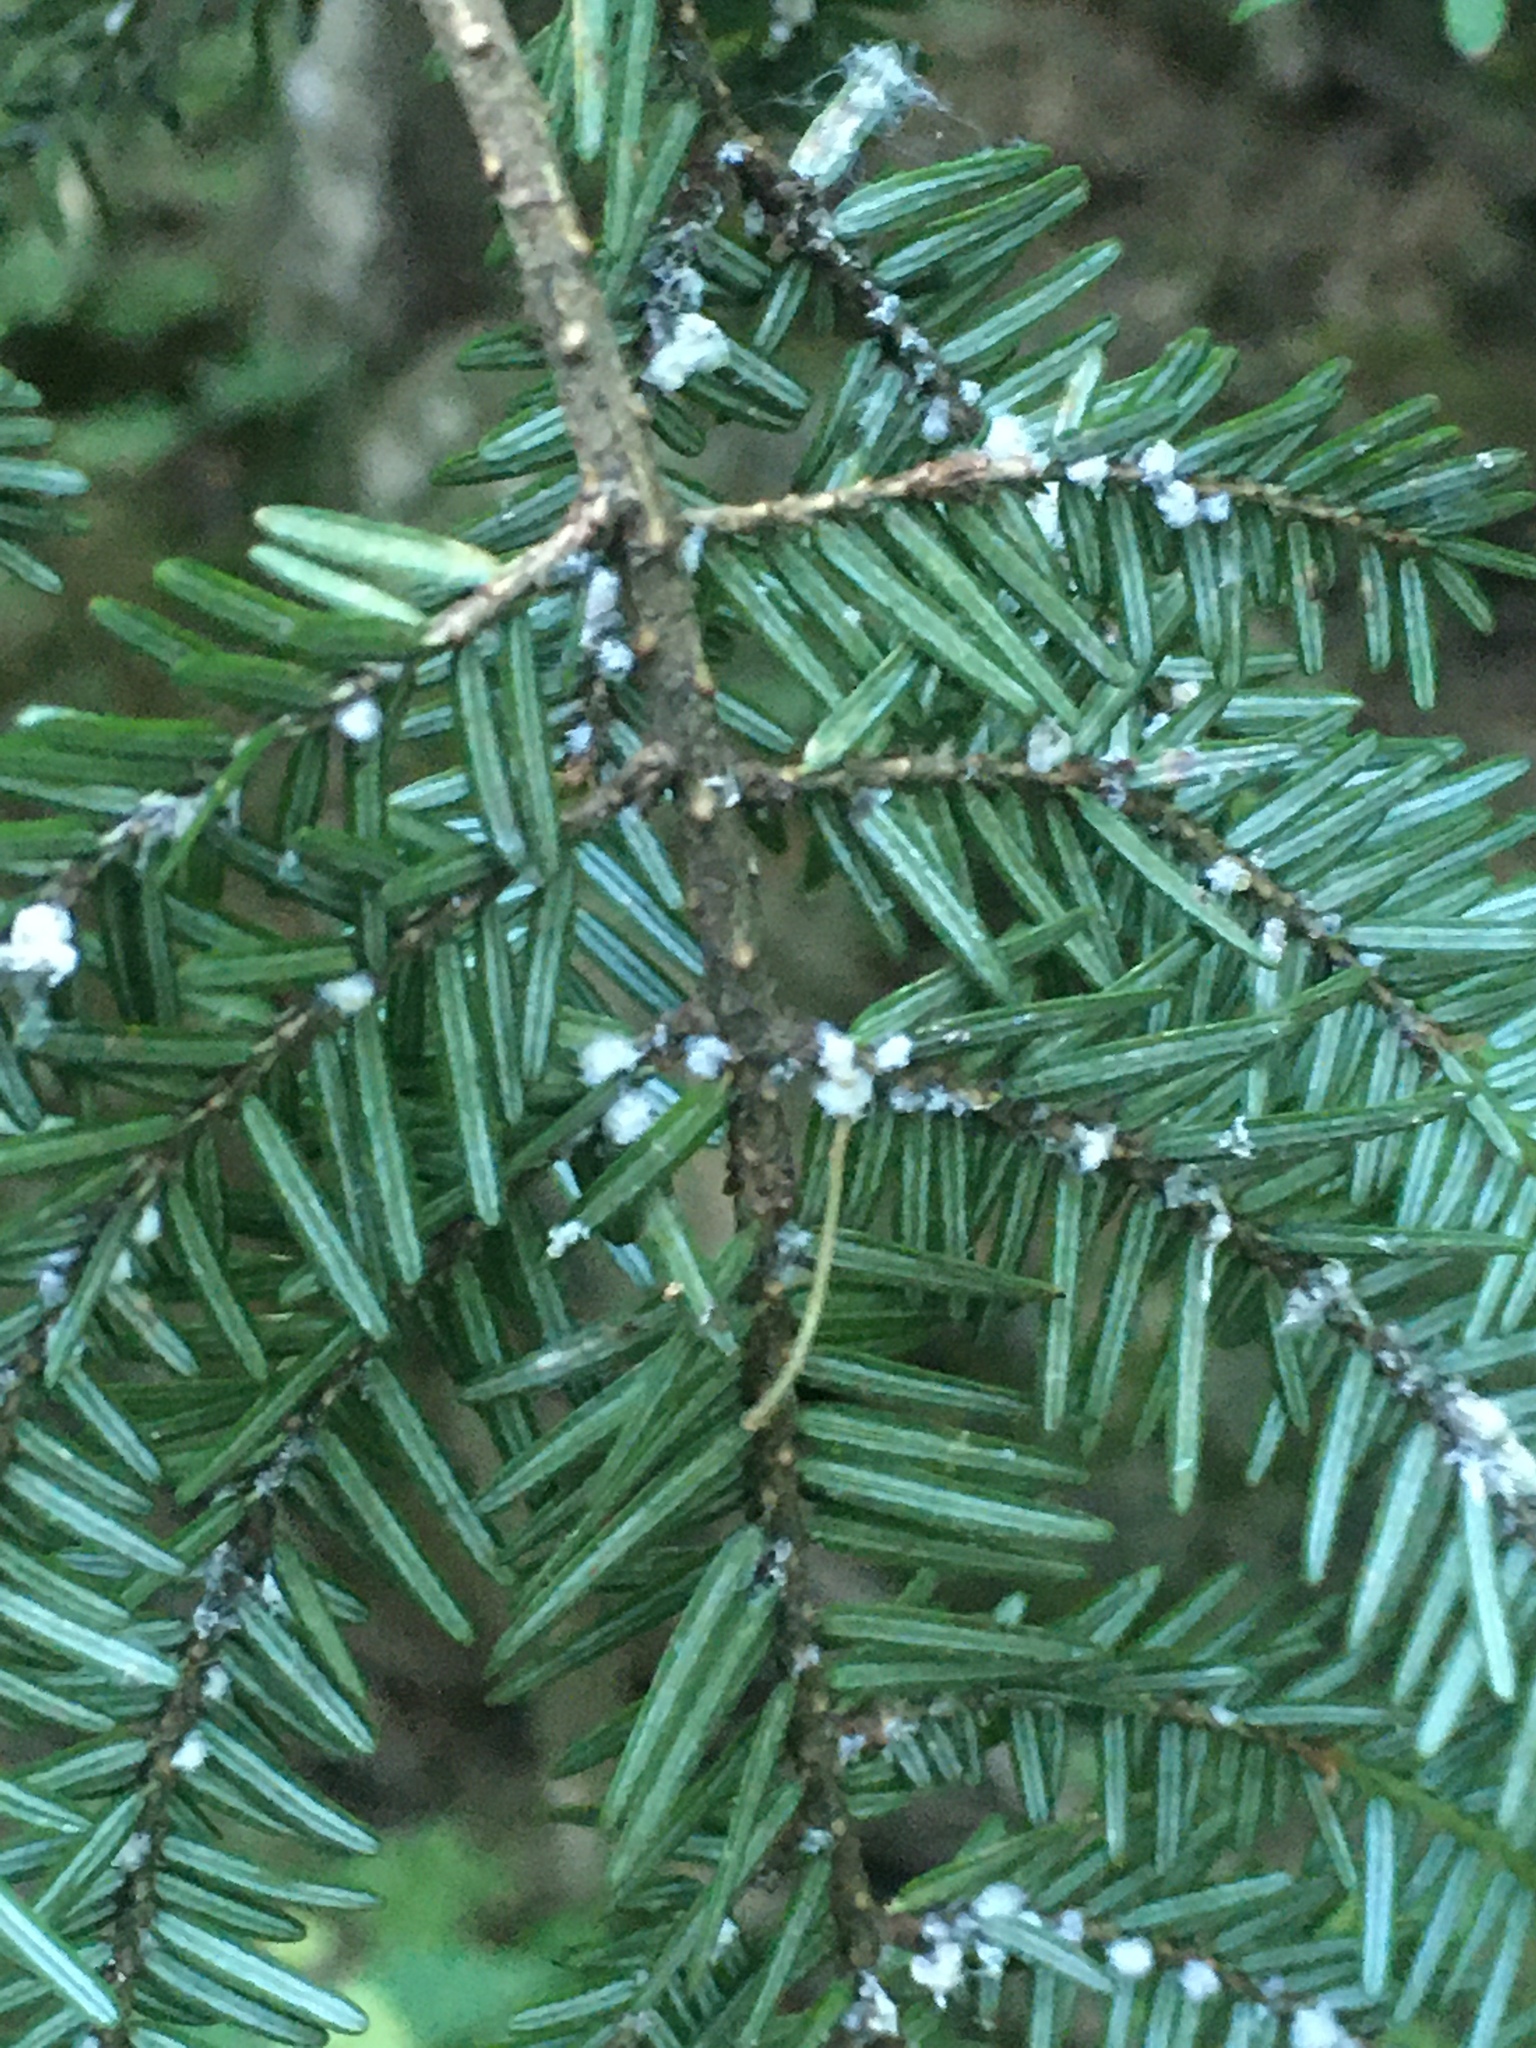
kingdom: Animalia
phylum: Arthropoda
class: Insecta
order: Hemiptera
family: Adelgidae
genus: Adelges
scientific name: Adelges tsugae
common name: Hemlock woolly adelgid
